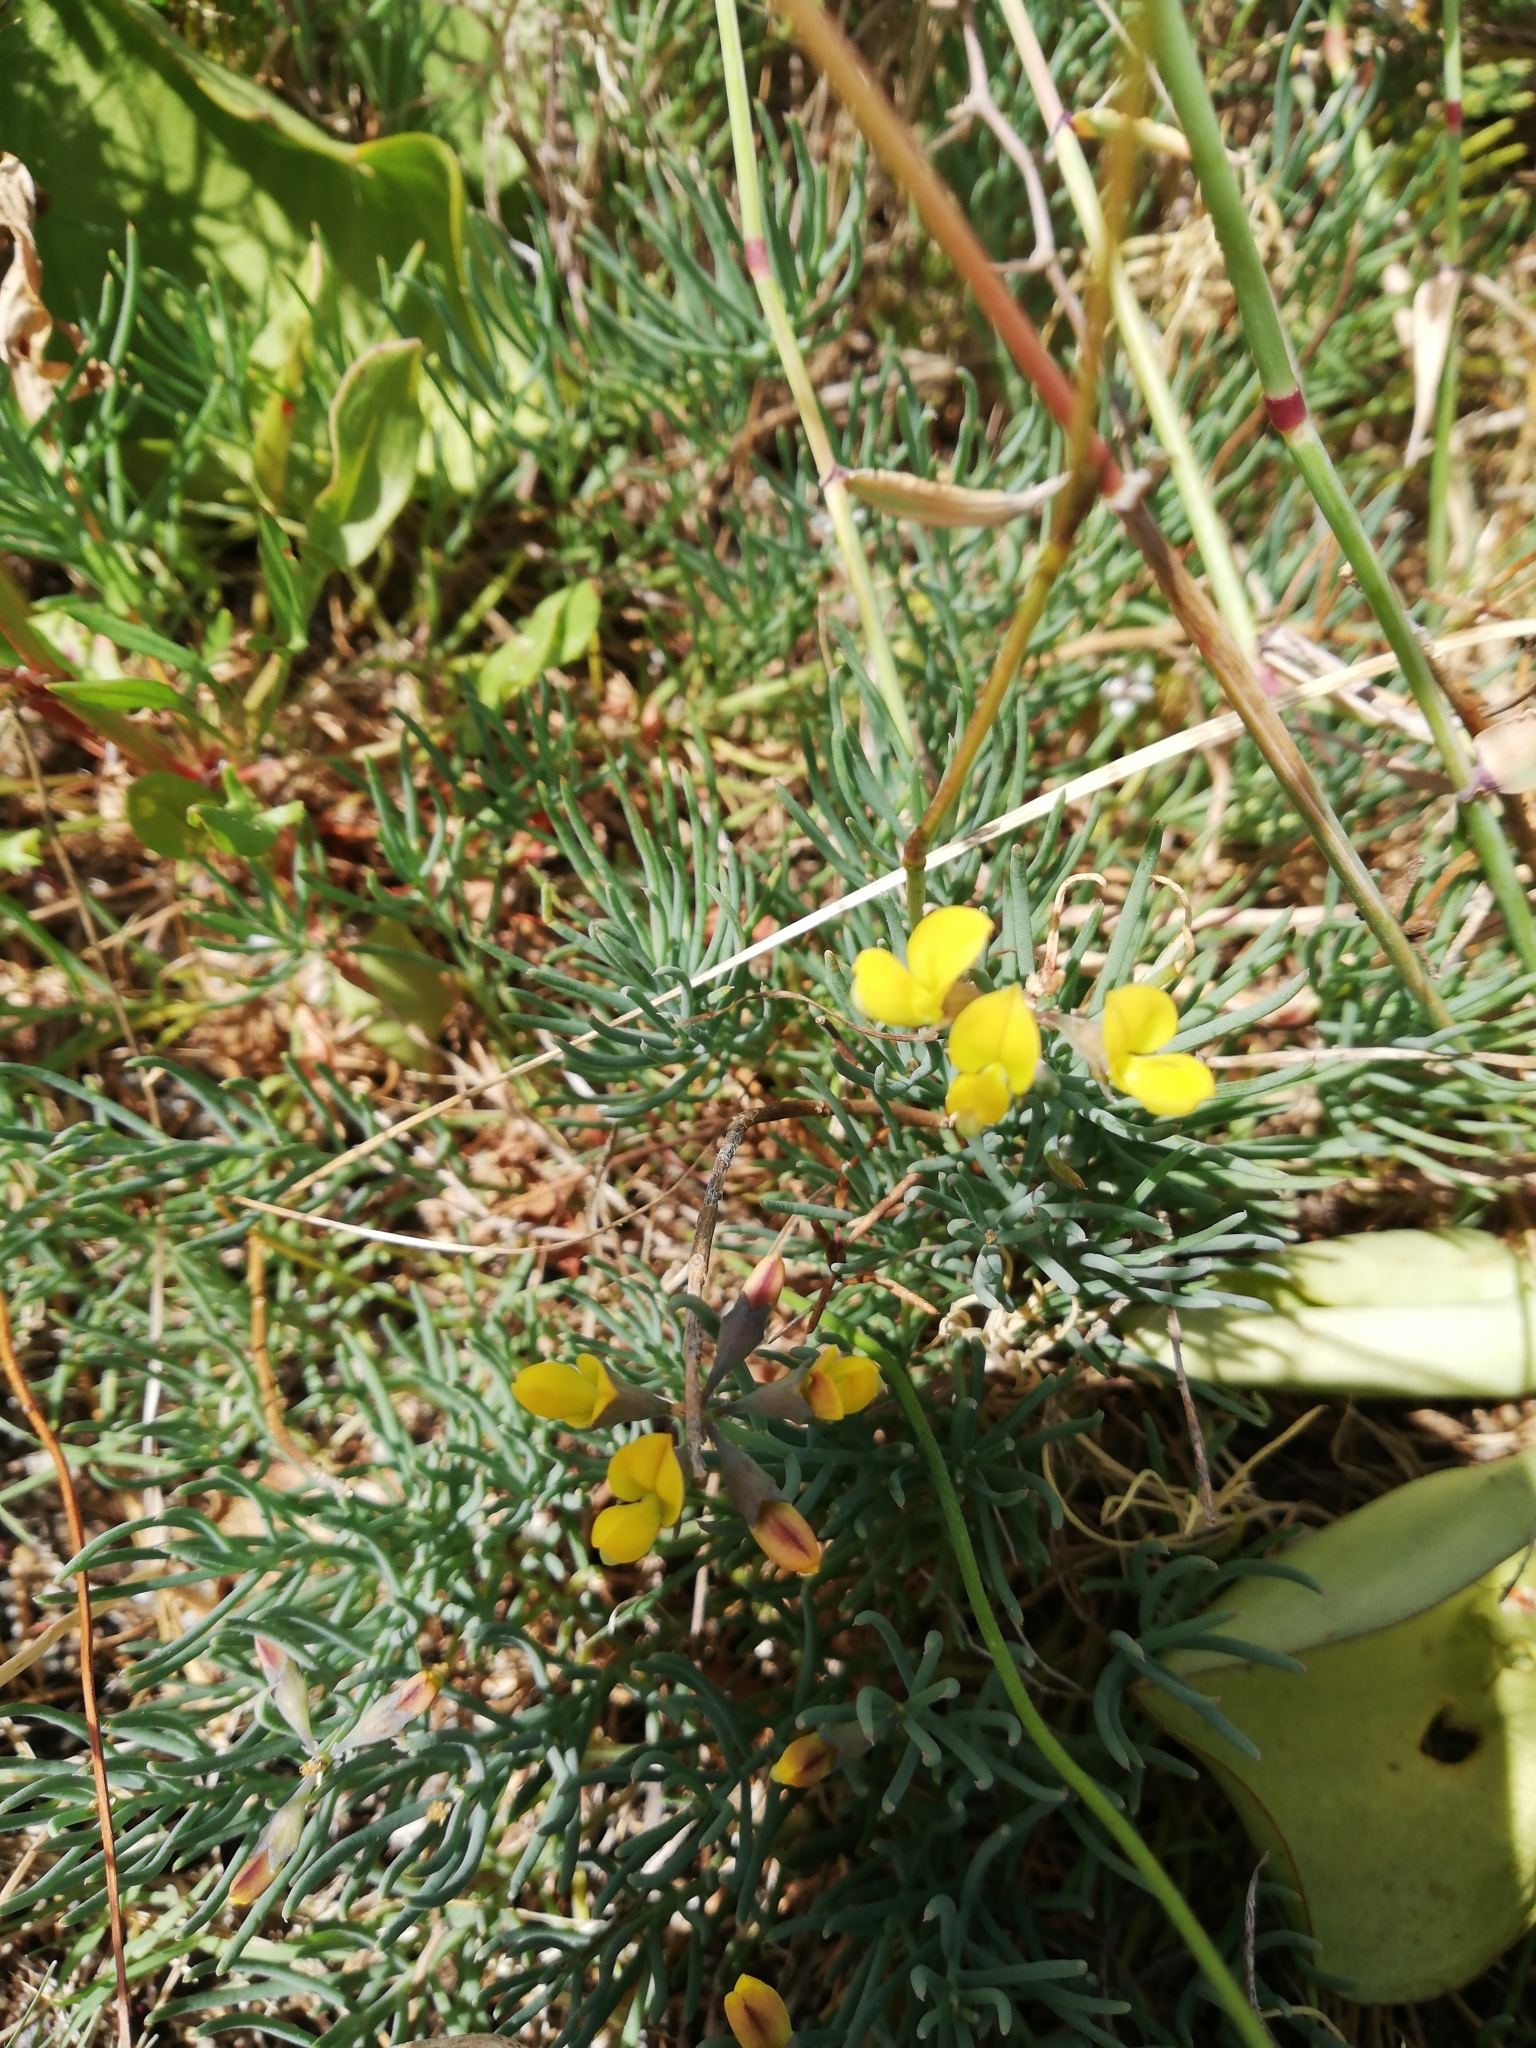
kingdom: Plantae
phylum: Tracheophyta
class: Magnoliopsida
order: Fabales
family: Fabaceae
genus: Lebeckia
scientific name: Lebeckia plukenetiana
